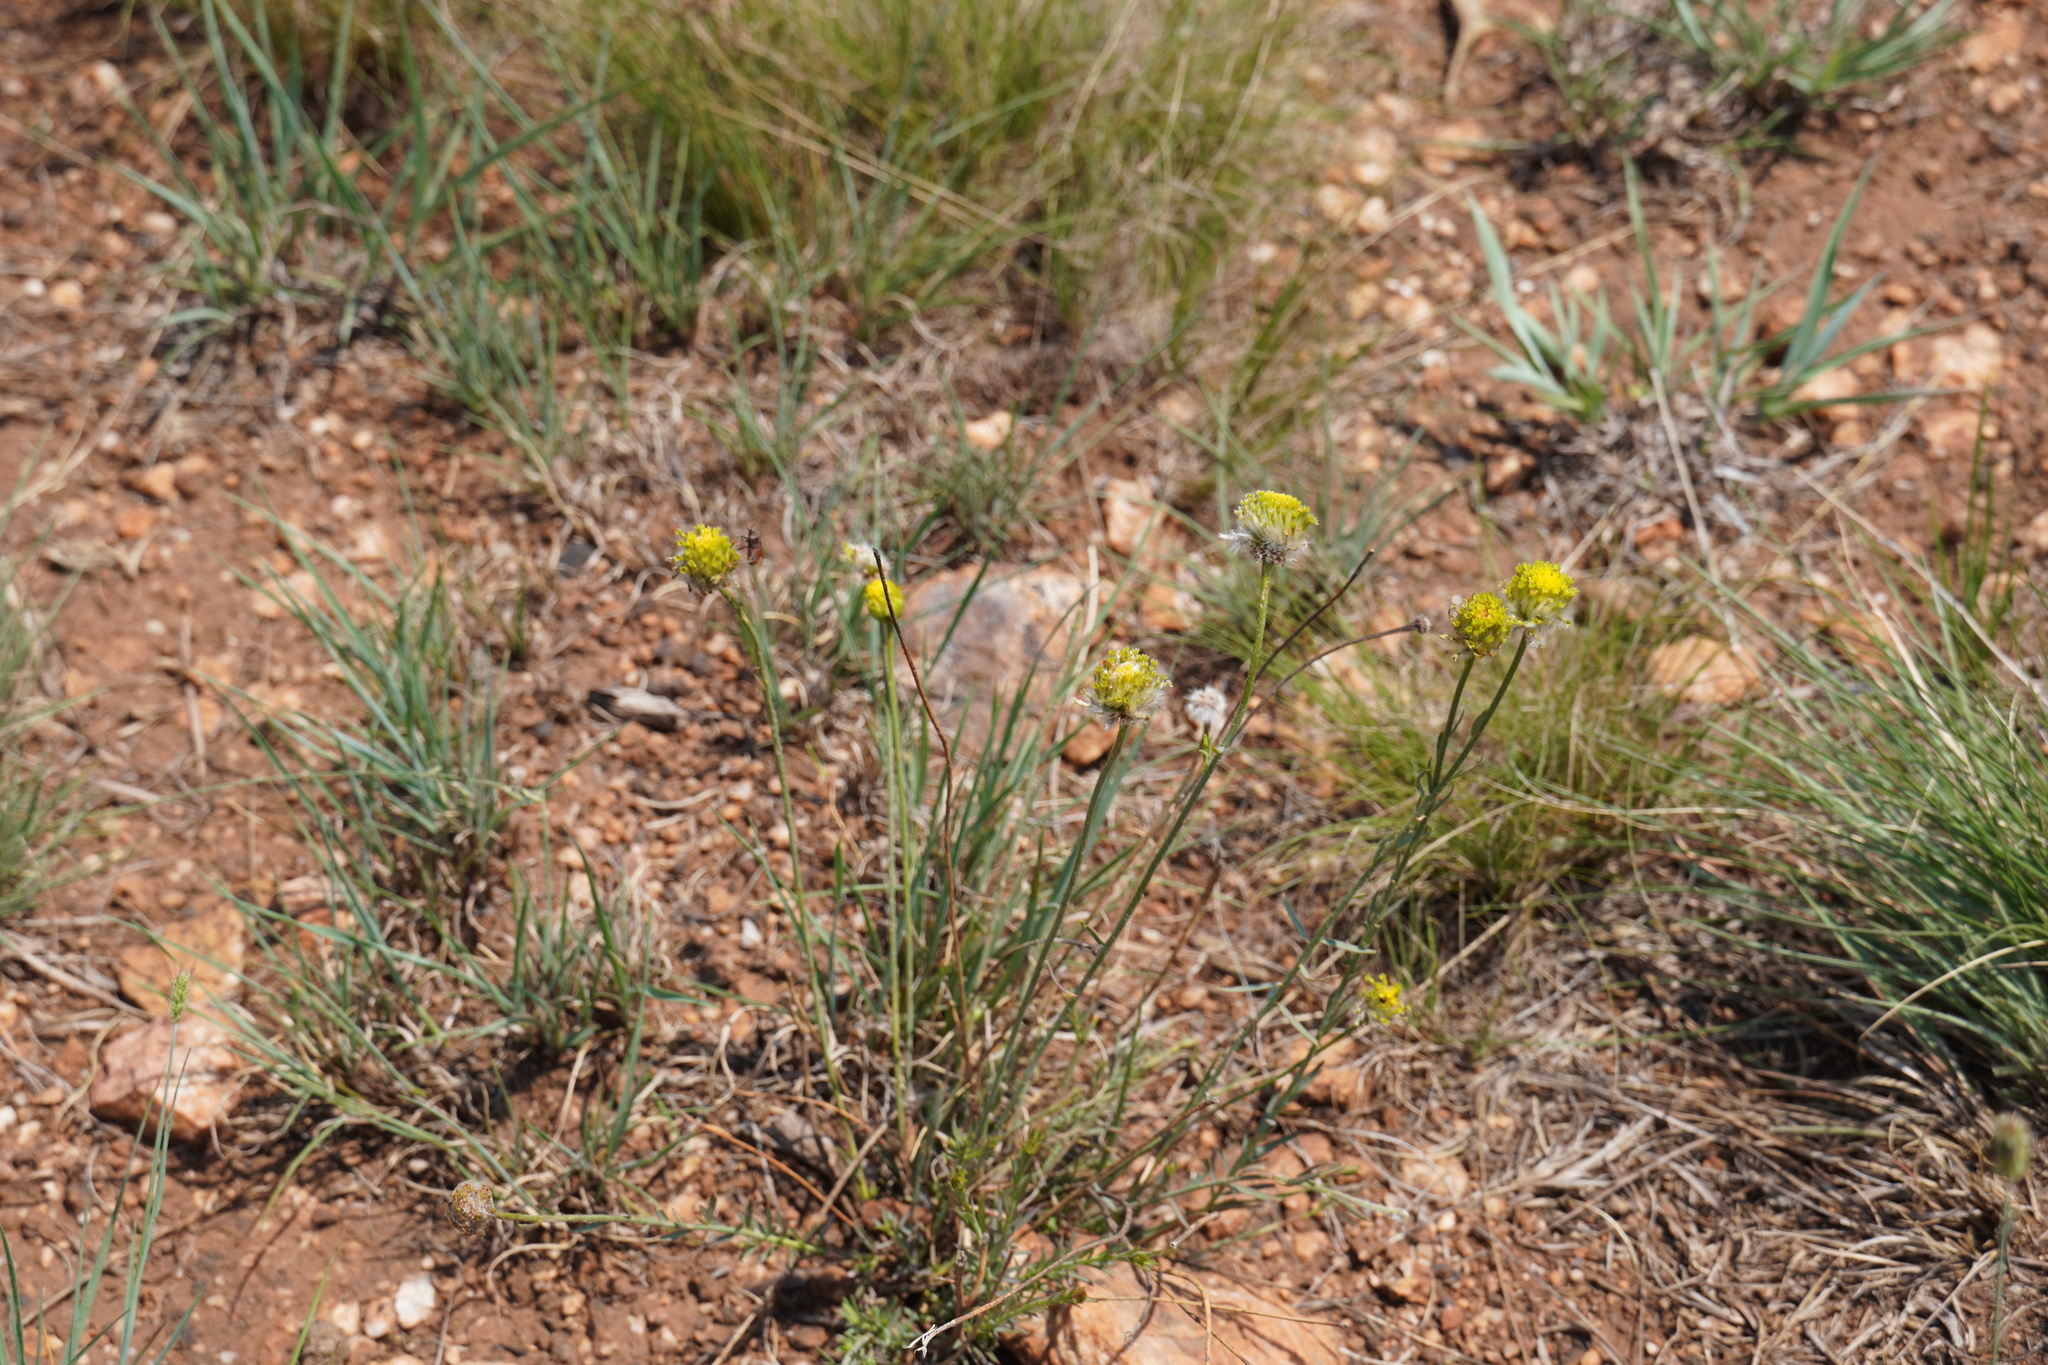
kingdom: Plantae
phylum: Tracheophyta
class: Magnoliopsida
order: Malvales
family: Thymelaeaceae
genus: Gnidia
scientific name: Gnidia sericocephala
